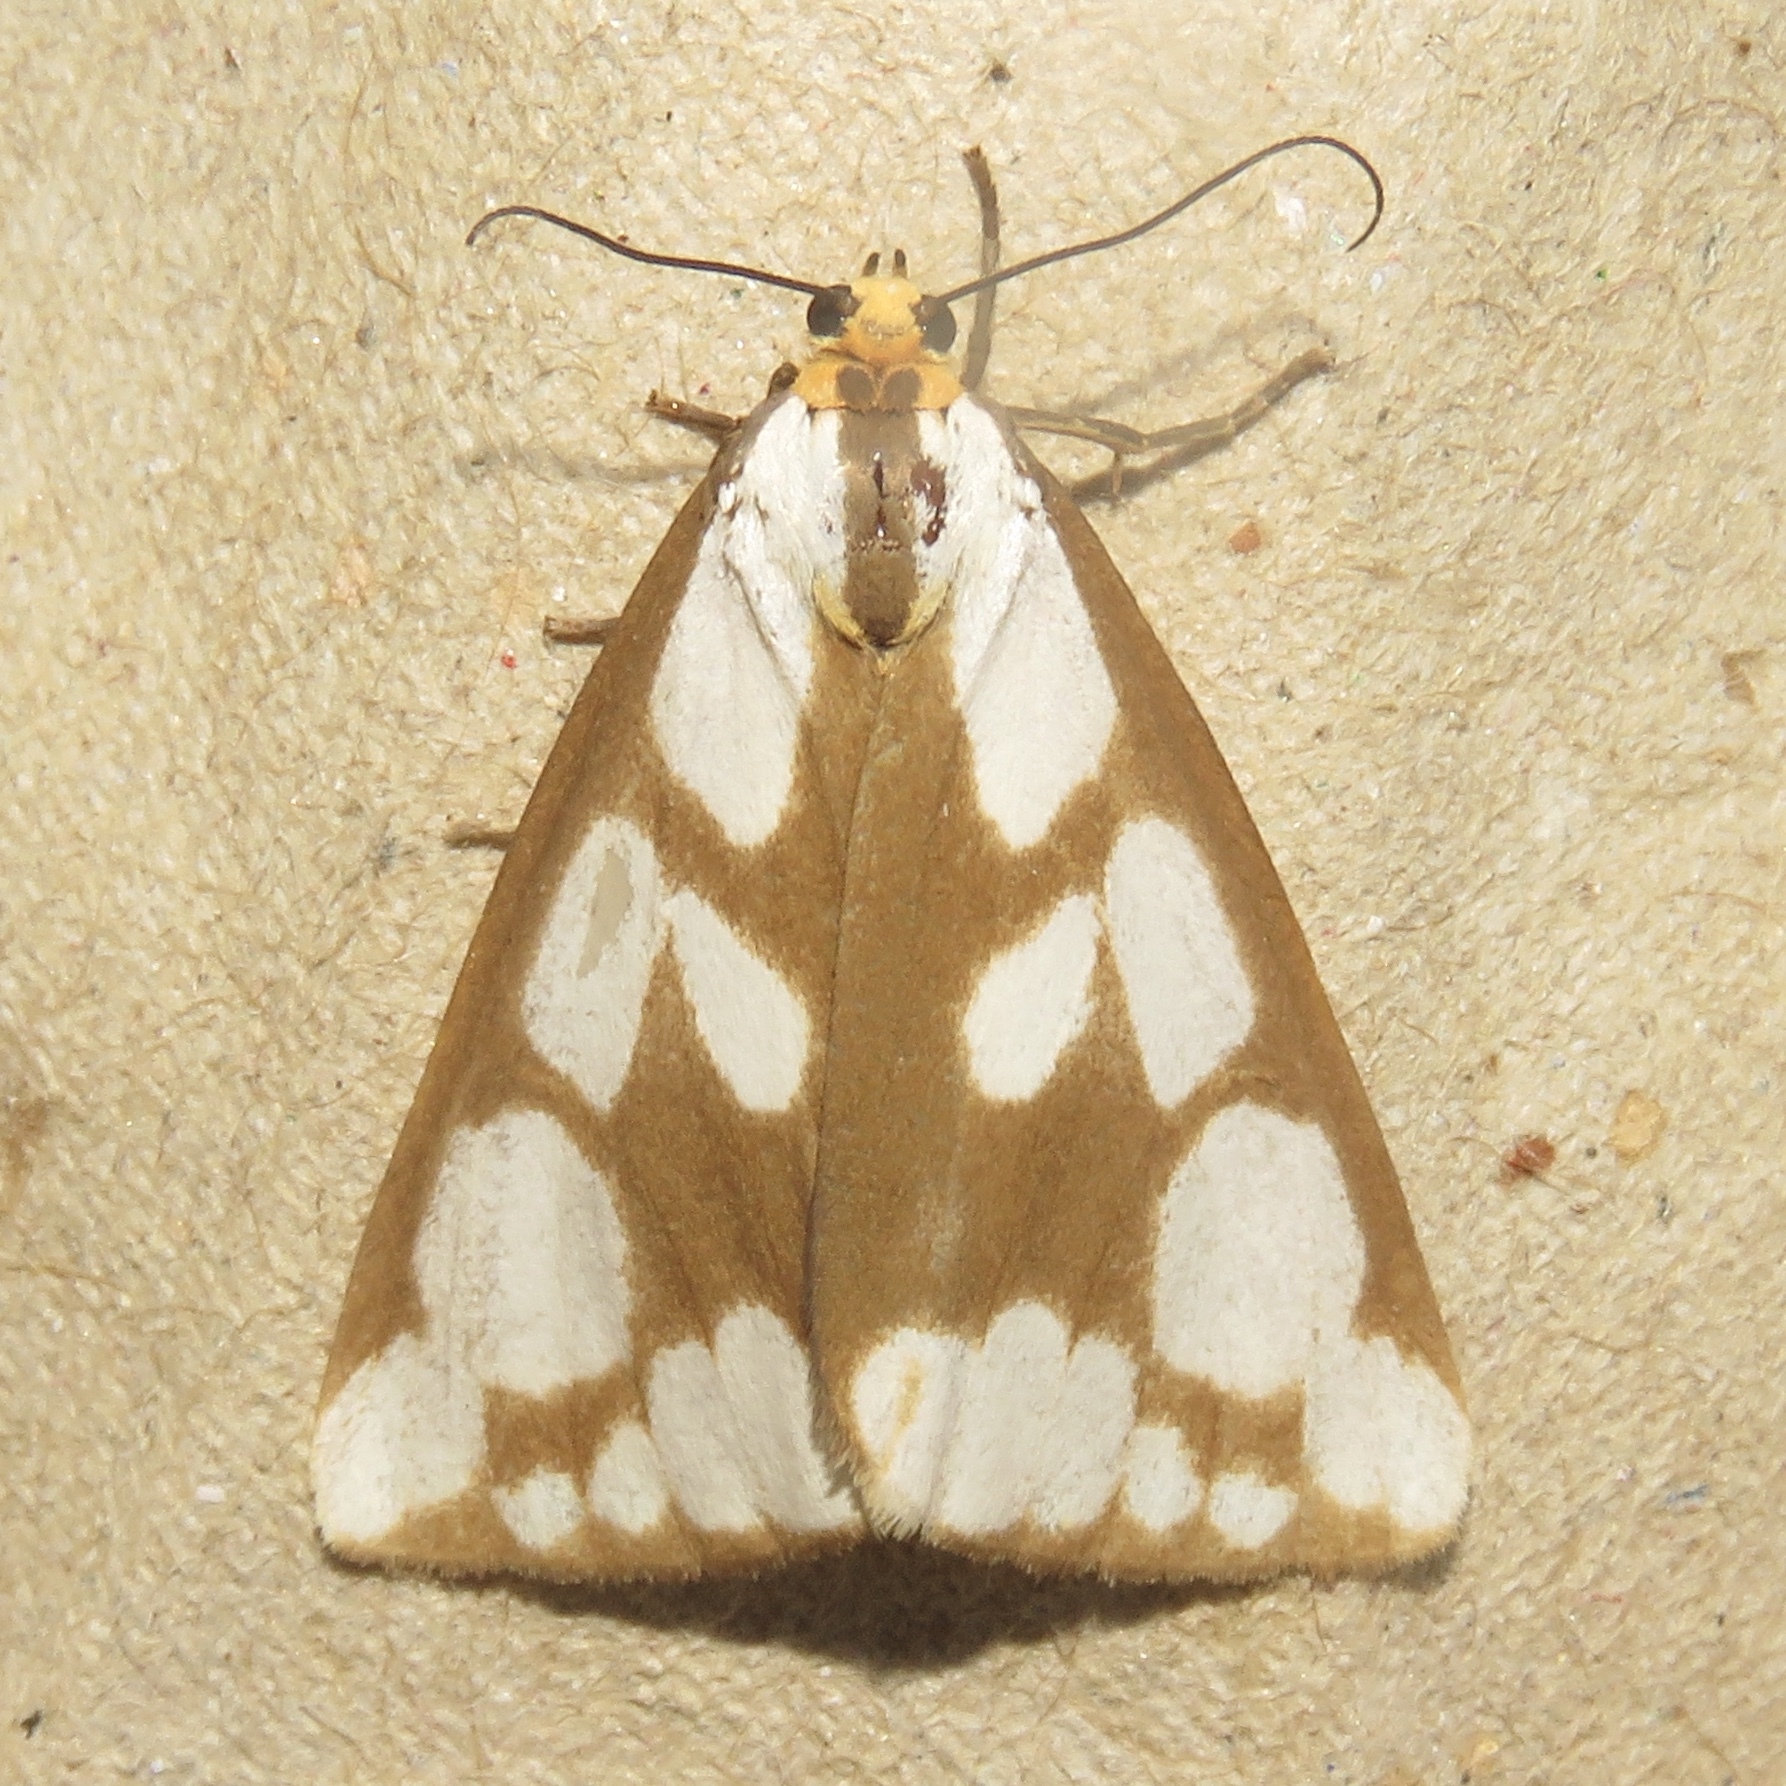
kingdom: Animalia
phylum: Arthropoda
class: Insecta
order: Lepidoptera
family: Erebidae
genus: Haploa
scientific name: Haploa confusa
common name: Confused haploa moth
